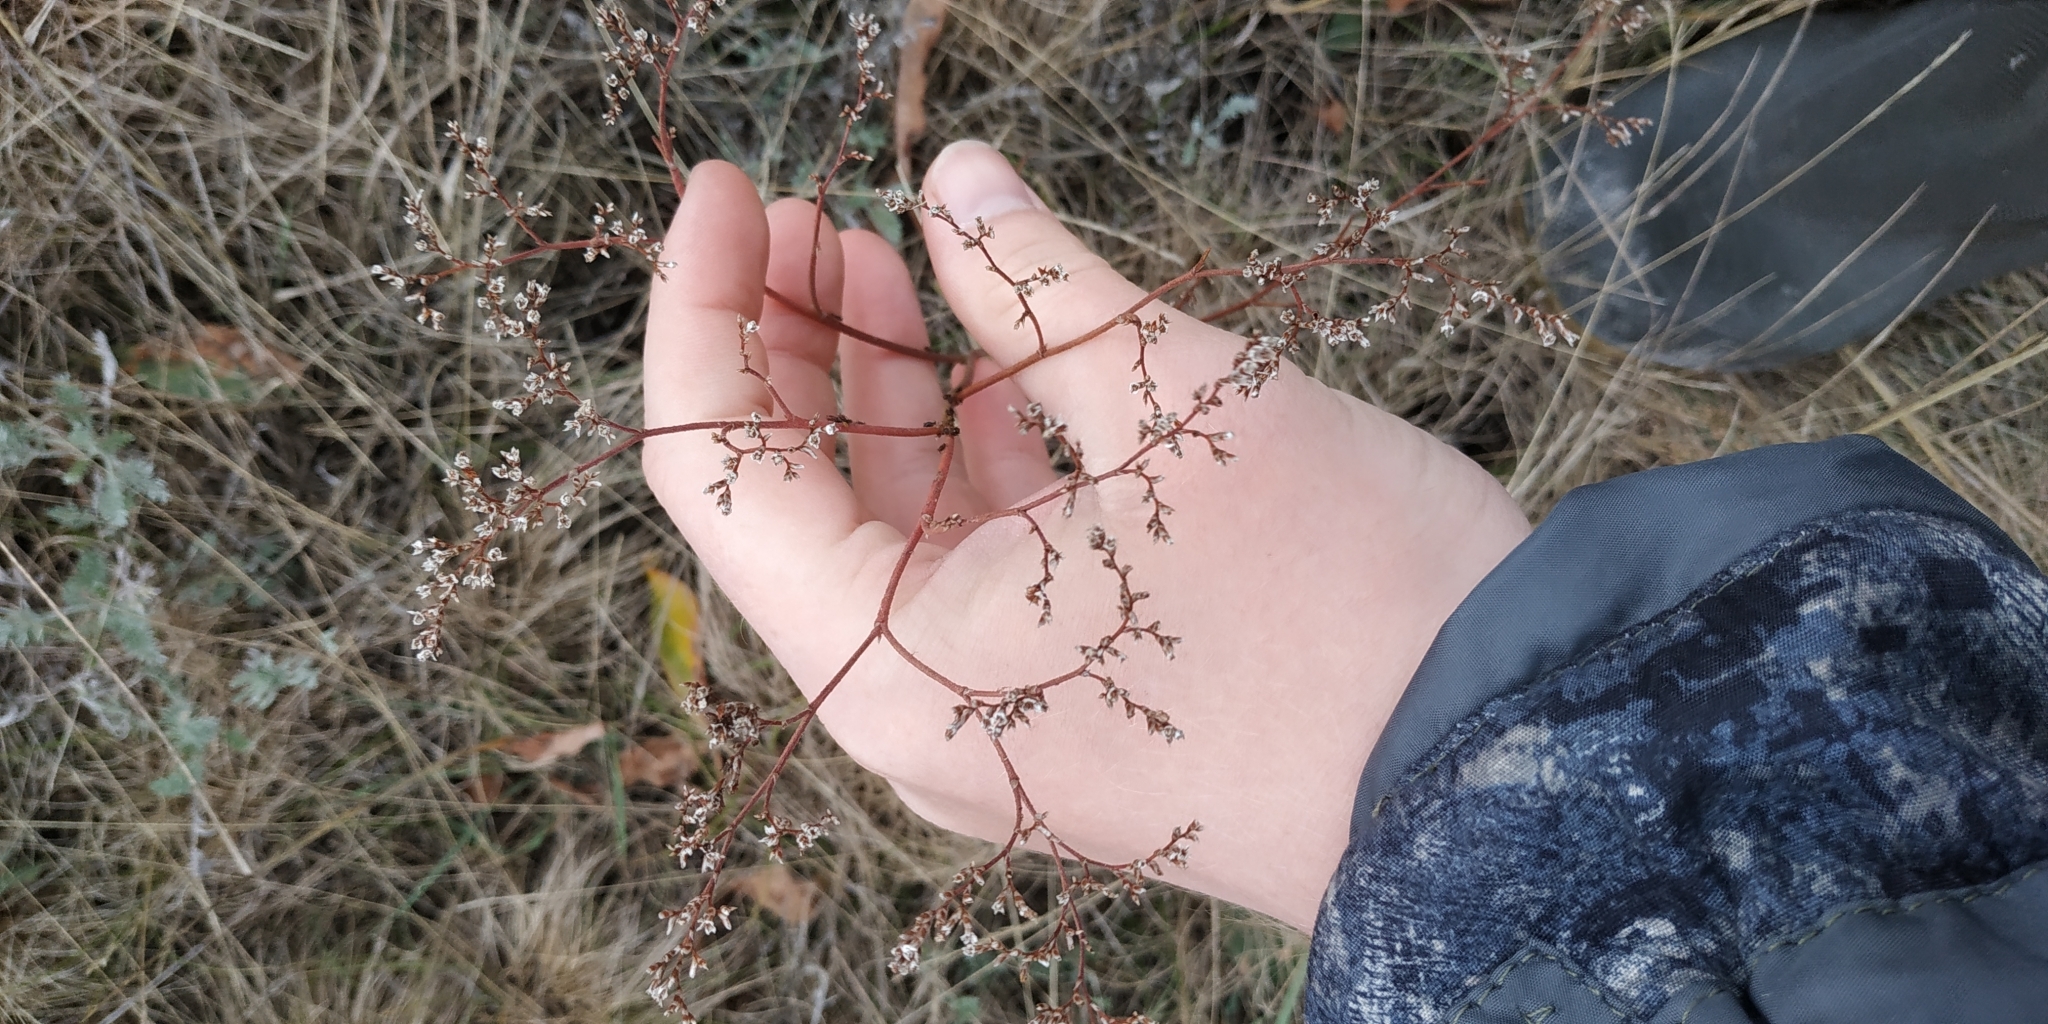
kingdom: Plantae
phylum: Tracheophyta
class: Magnoliopsida
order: Caryophyllales
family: Plumbaginaceae
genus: Limonium
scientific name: Limonium gmelini
